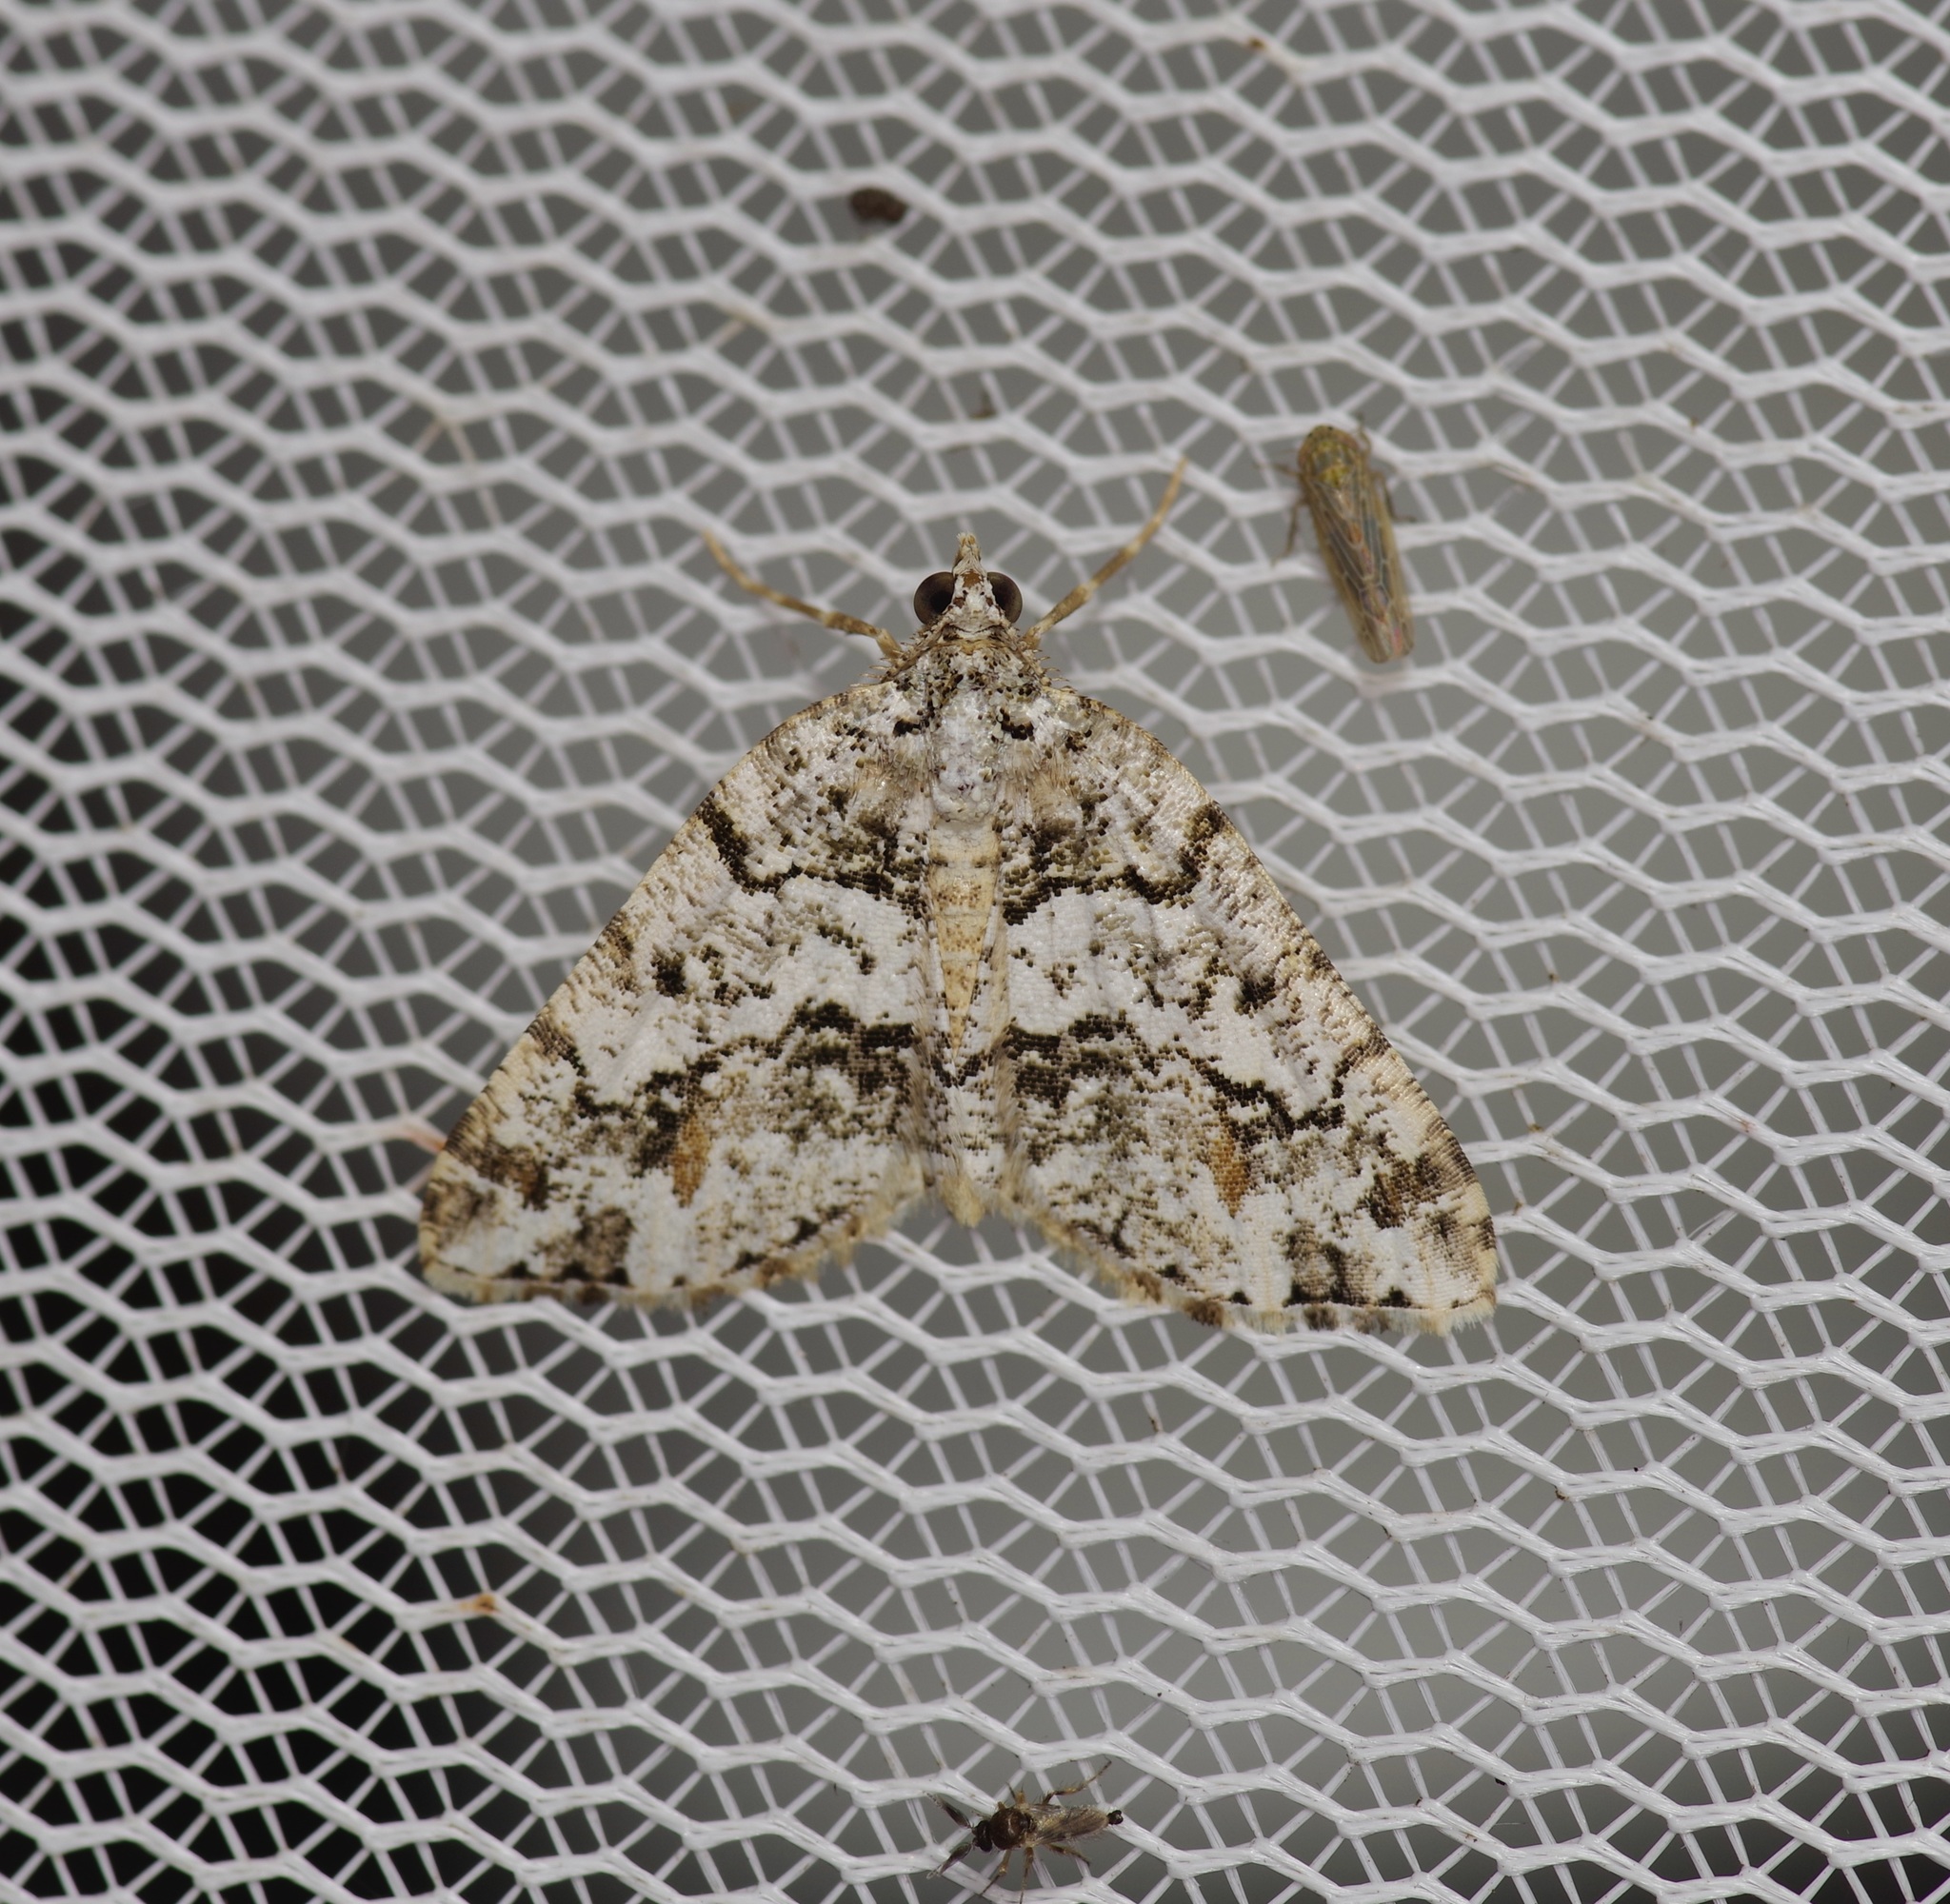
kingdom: Animalia
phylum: Arthropoda
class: Insecta
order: Lepidoptera
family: Geometridae
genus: Macaria
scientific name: Macaria graphidaria
